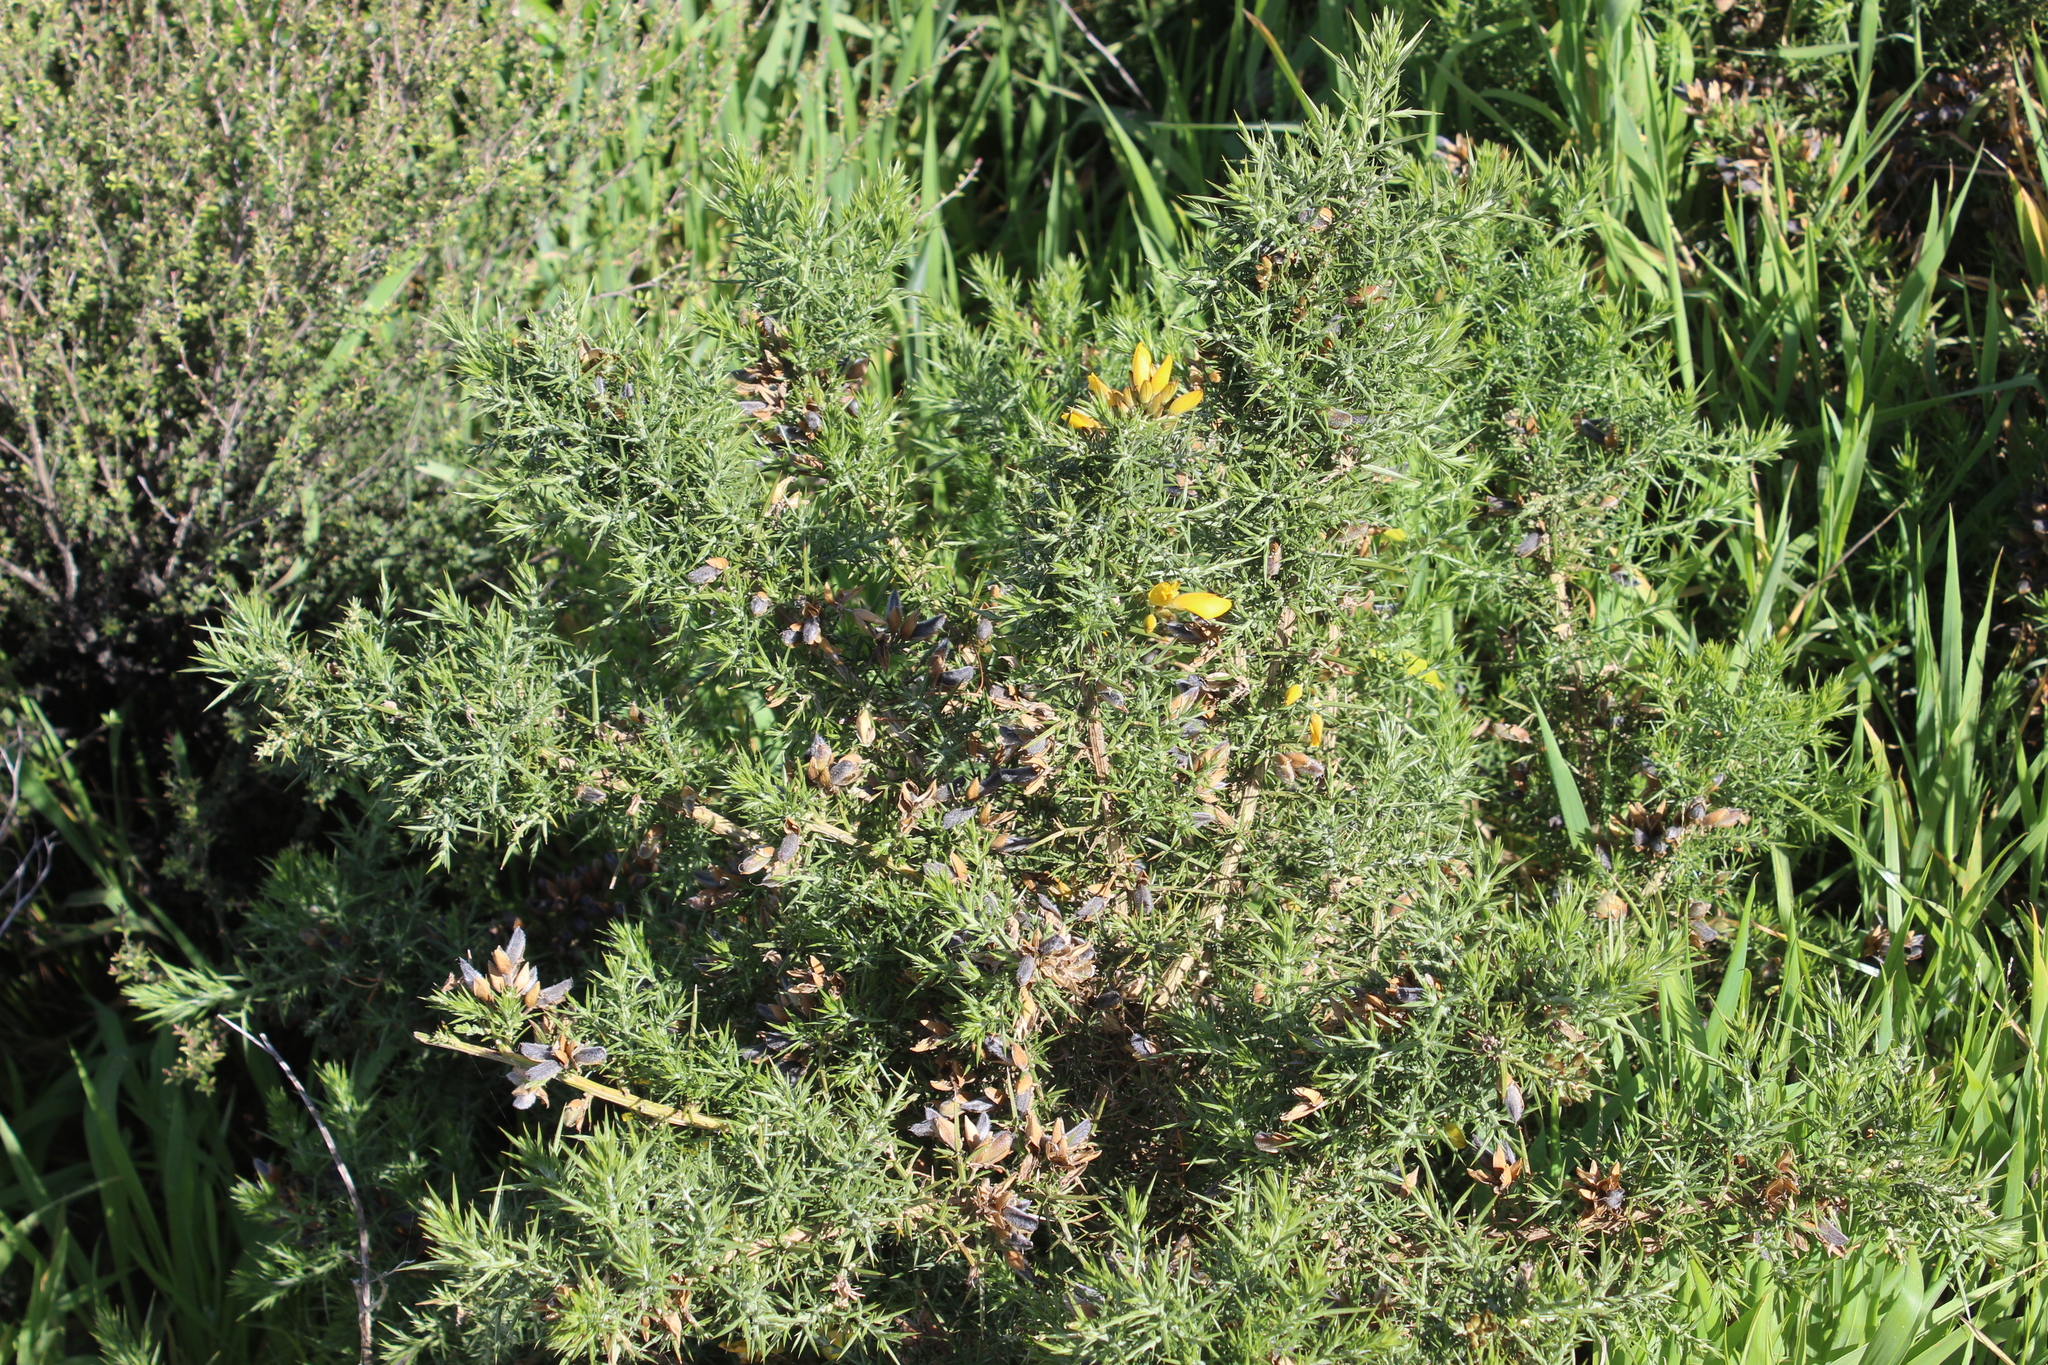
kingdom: Plantae
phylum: Tracheophyta
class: Magnoliopsida
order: Fabales
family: Fabaceae
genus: Ulex
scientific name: Ulex europaeus
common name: Common gorse
